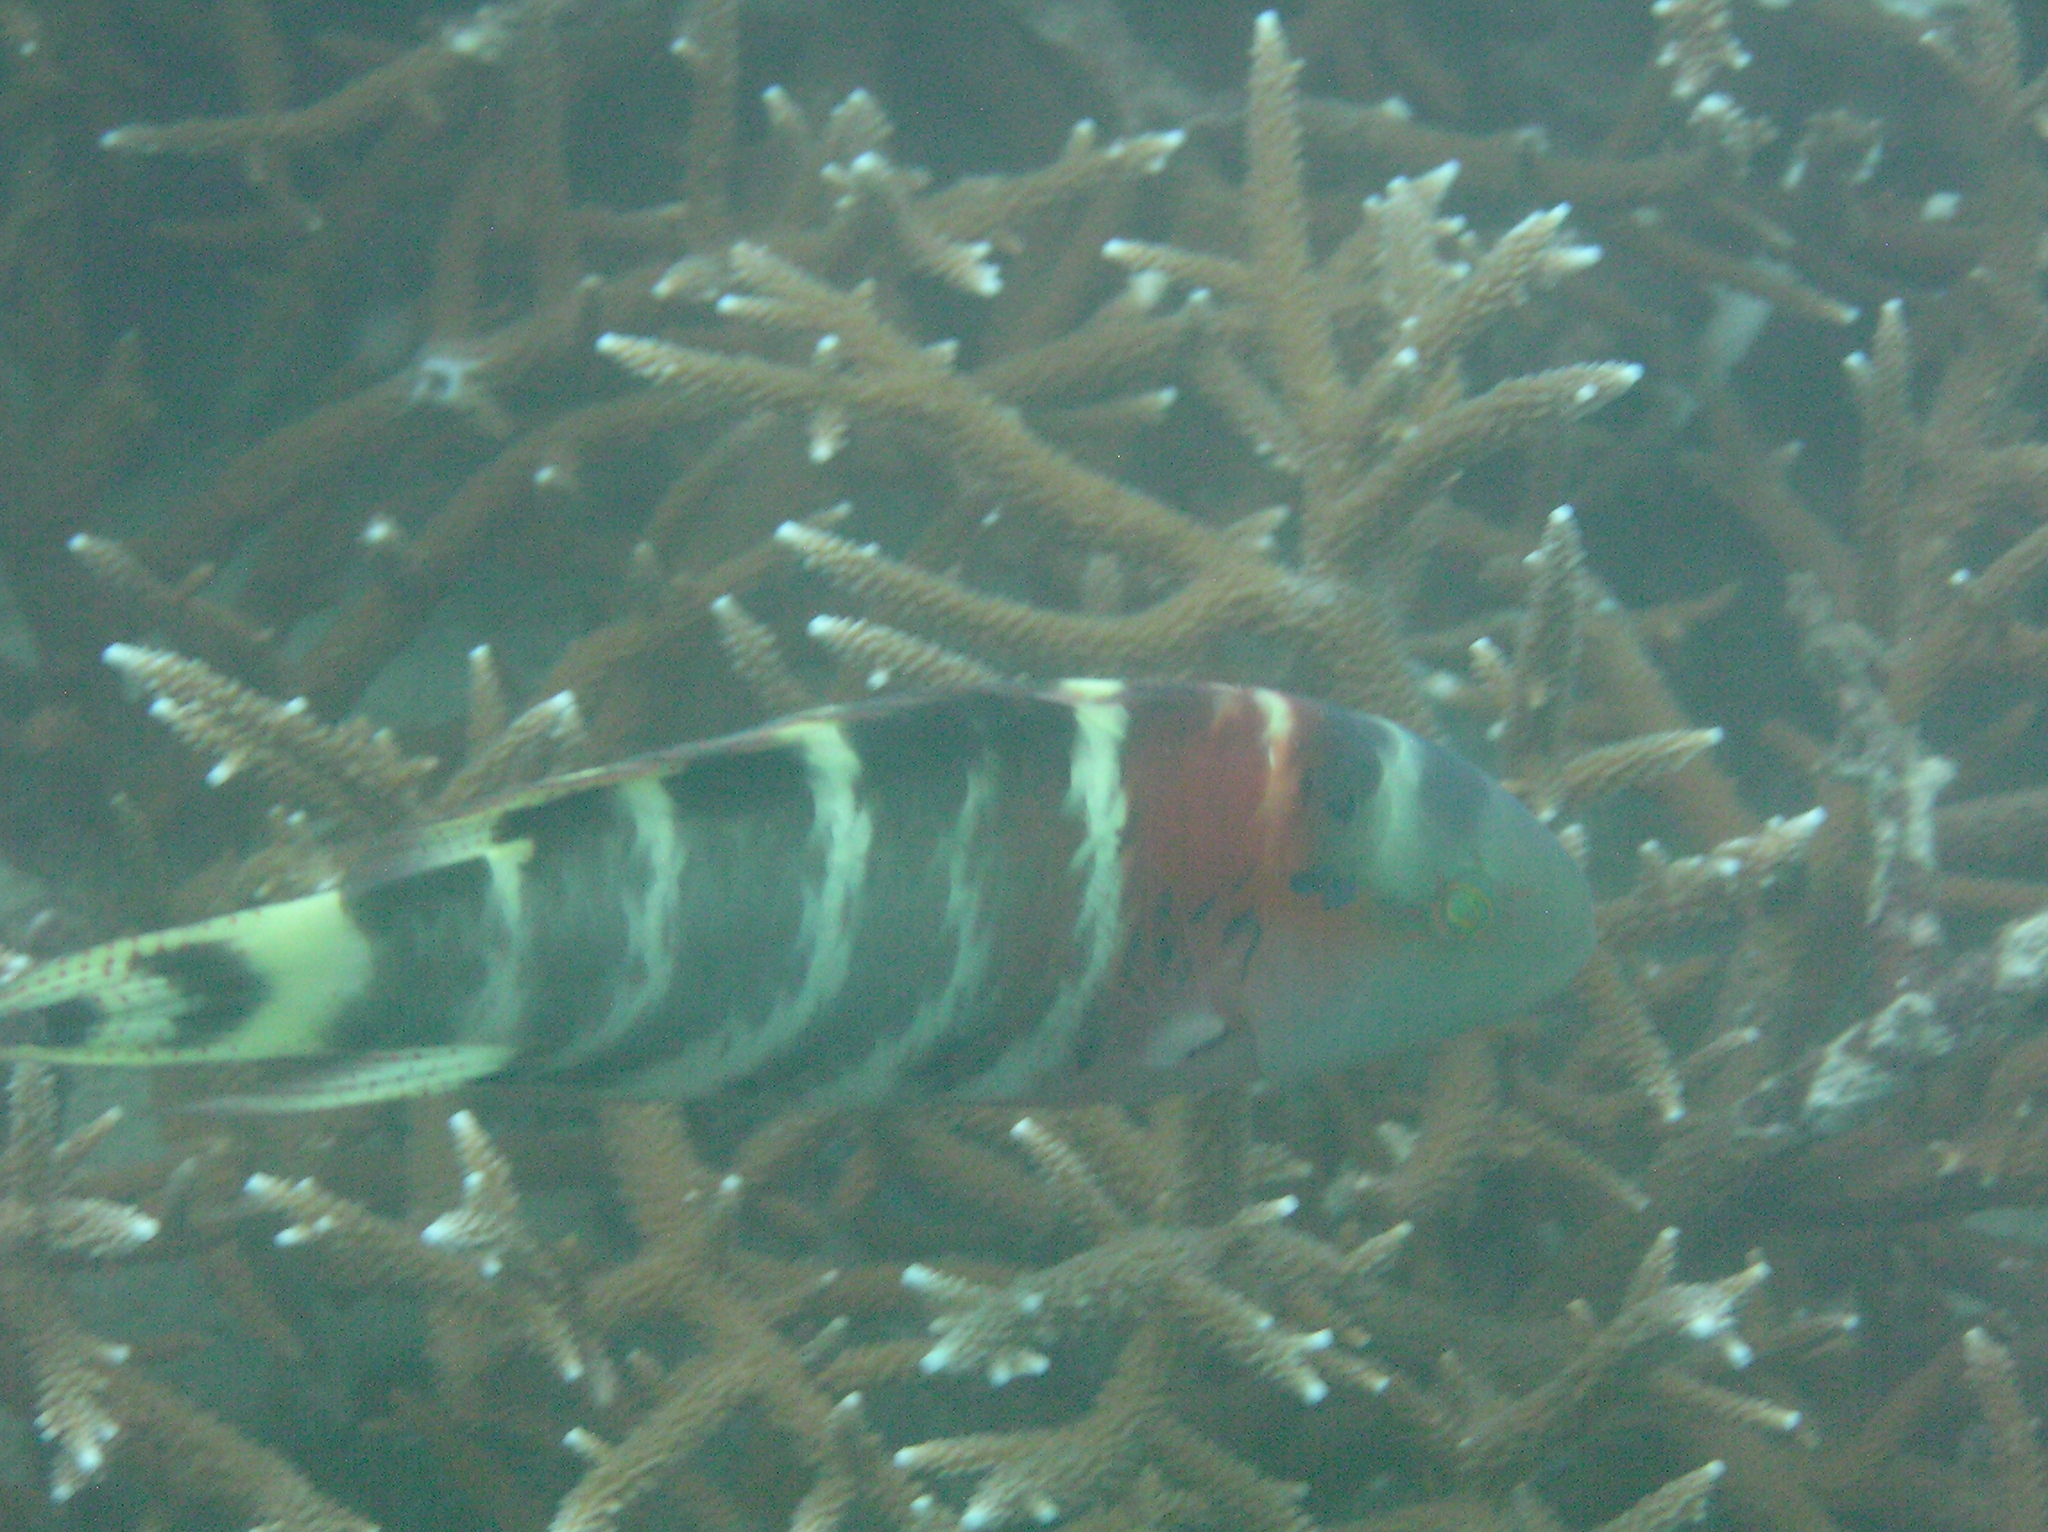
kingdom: Animalia
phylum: Chordata
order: Perciformes
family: Labridae
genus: Cheilinus
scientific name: Cheilinus fasciatus
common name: Red-breasted wrasse
